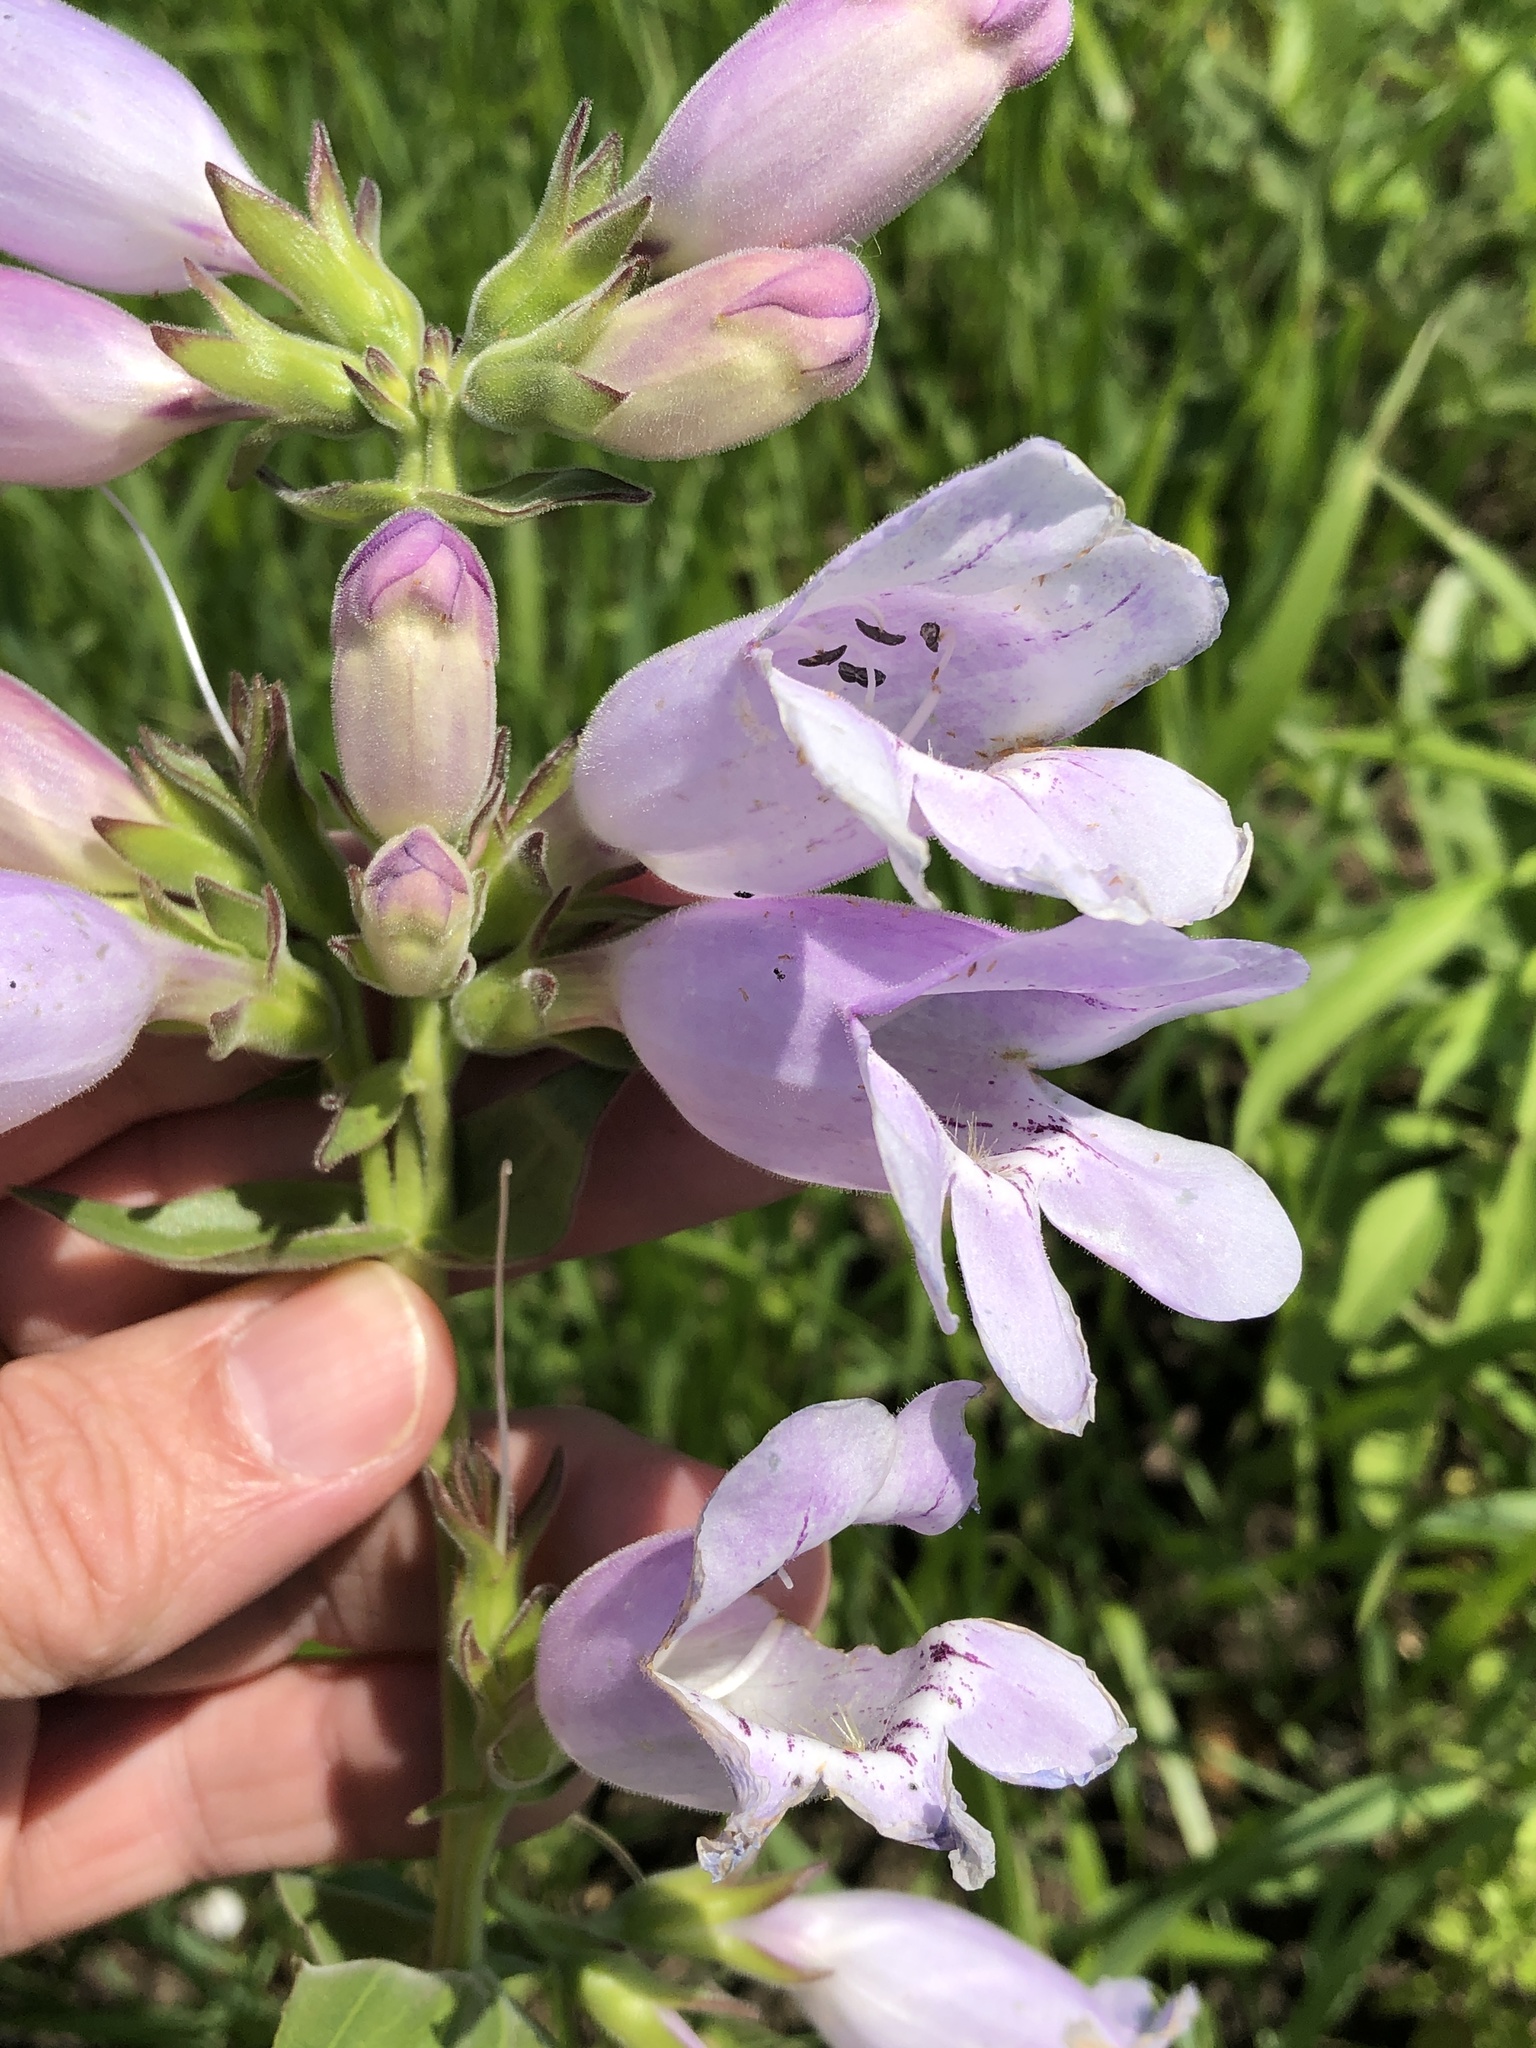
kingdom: Plantae
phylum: Tracheophyta
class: Magnoliopsida
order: Lamiales
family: Plantaginaceae
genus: Penstemon
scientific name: Penstemon cobaea
